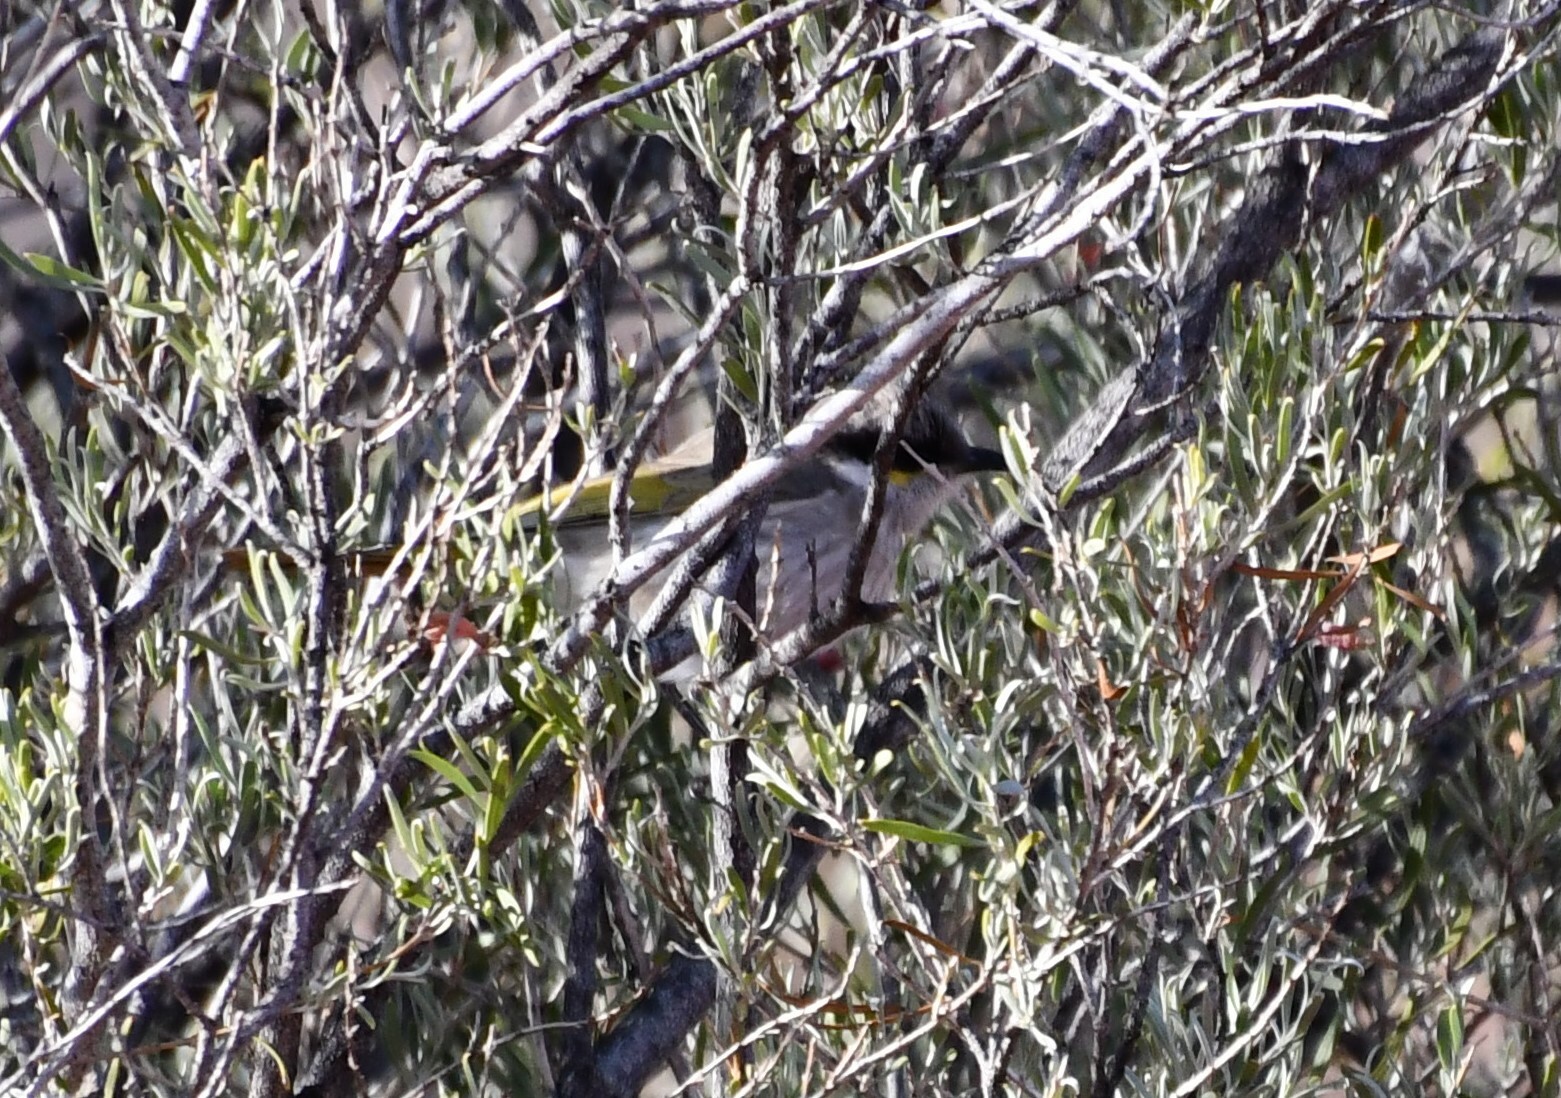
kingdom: Animalia
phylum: Chordata
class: Aves
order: Passeriformes
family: Meliphagidae
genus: Gavicalis
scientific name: Gavicalis virescens
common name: Singing honeyeater
